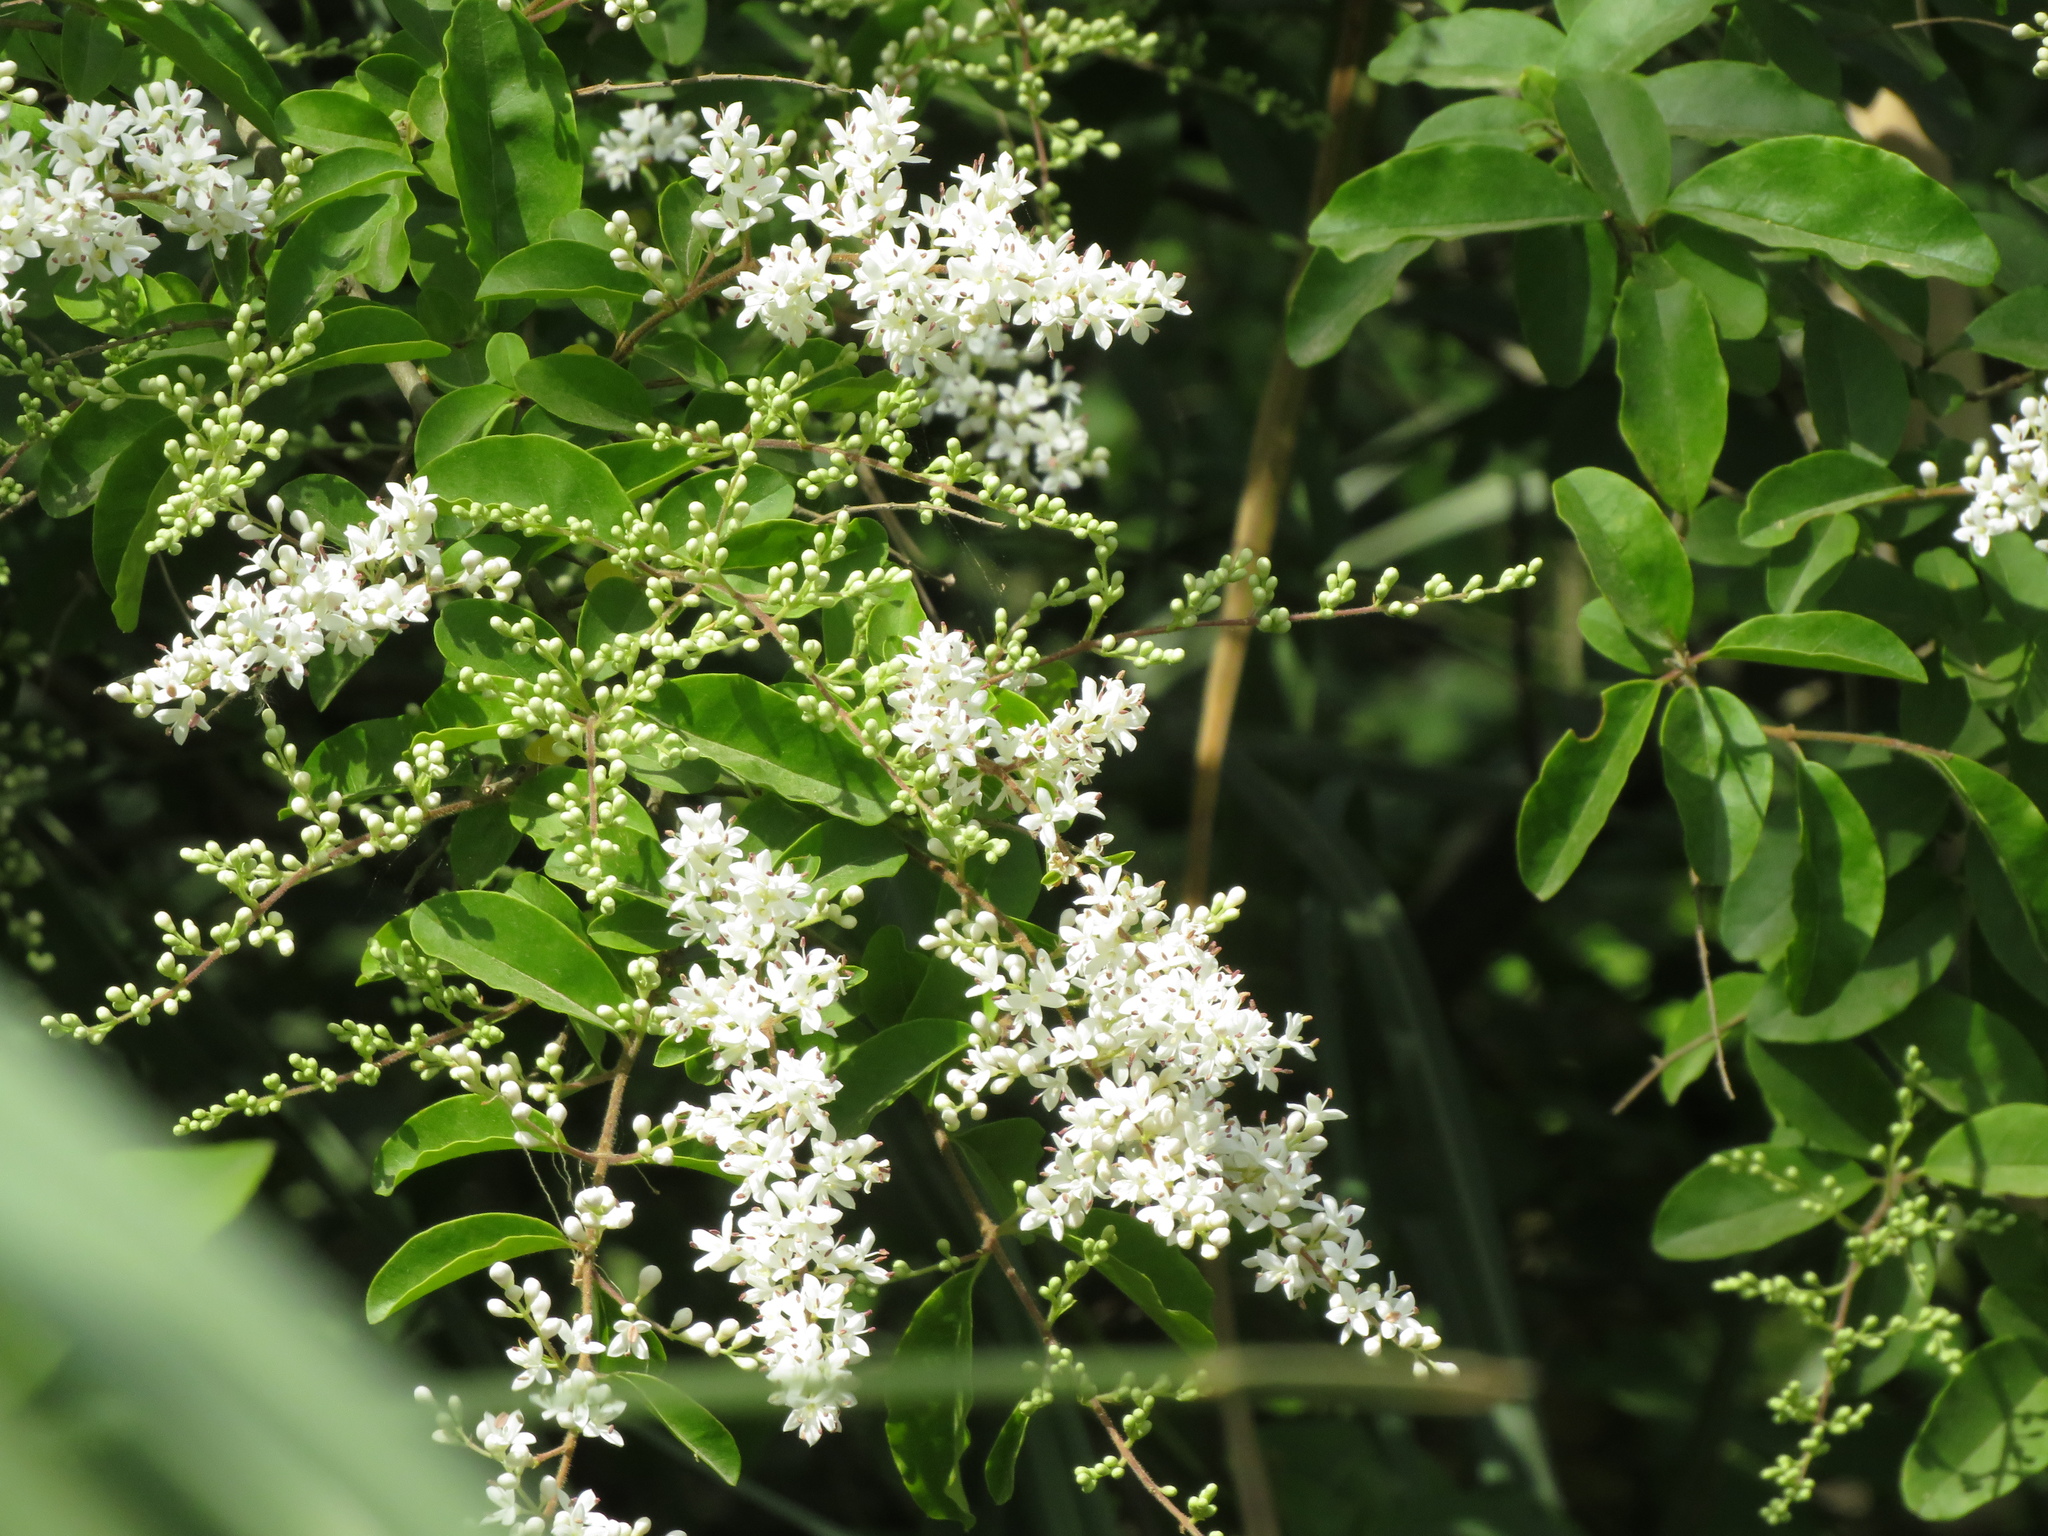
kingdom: Plantae
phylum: Tracheophyta
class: Magnoliopsida
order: Lamiales
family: Oleaceae
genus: Ligustrum
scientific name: Ligustrum sinense
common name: Chinese privet
